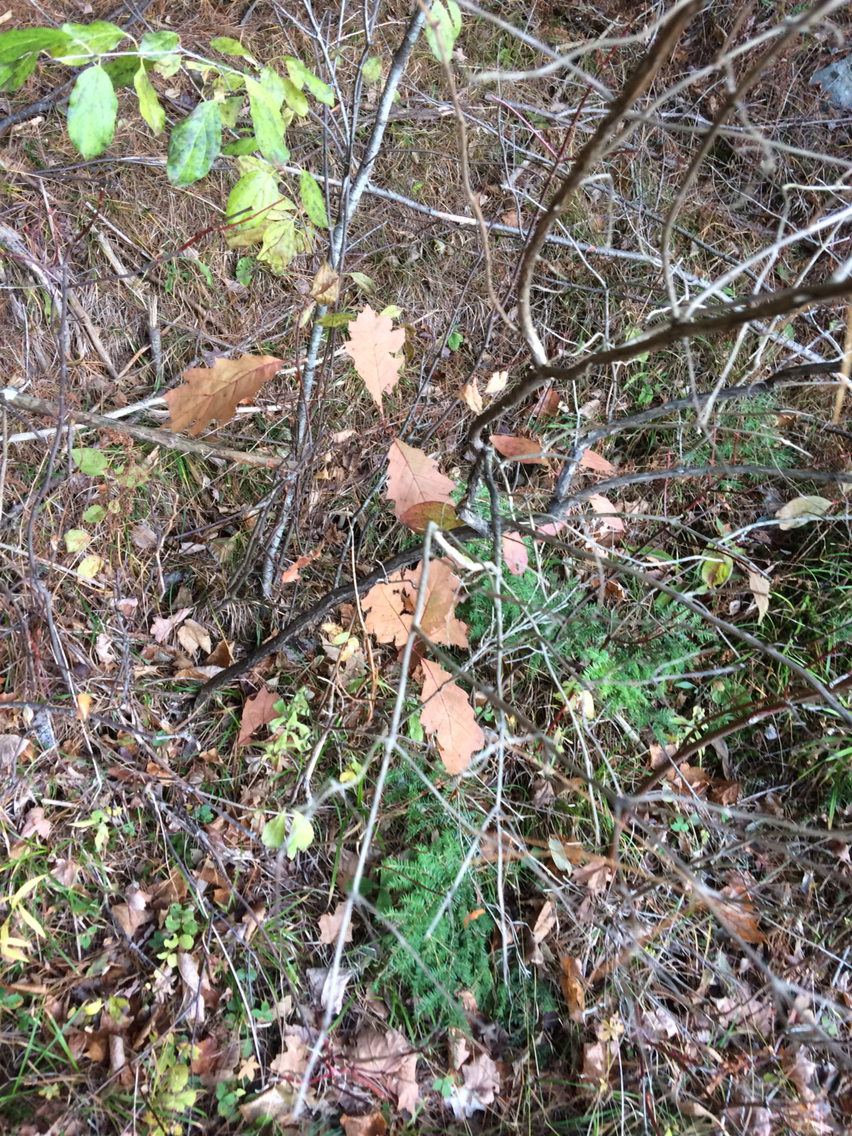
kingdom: Plantae
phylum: Tracheophyta
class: Magnoliopsida
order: Fagales
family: Fagaceae
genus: Quercus
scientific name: Quercus rubra
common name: Red oak
